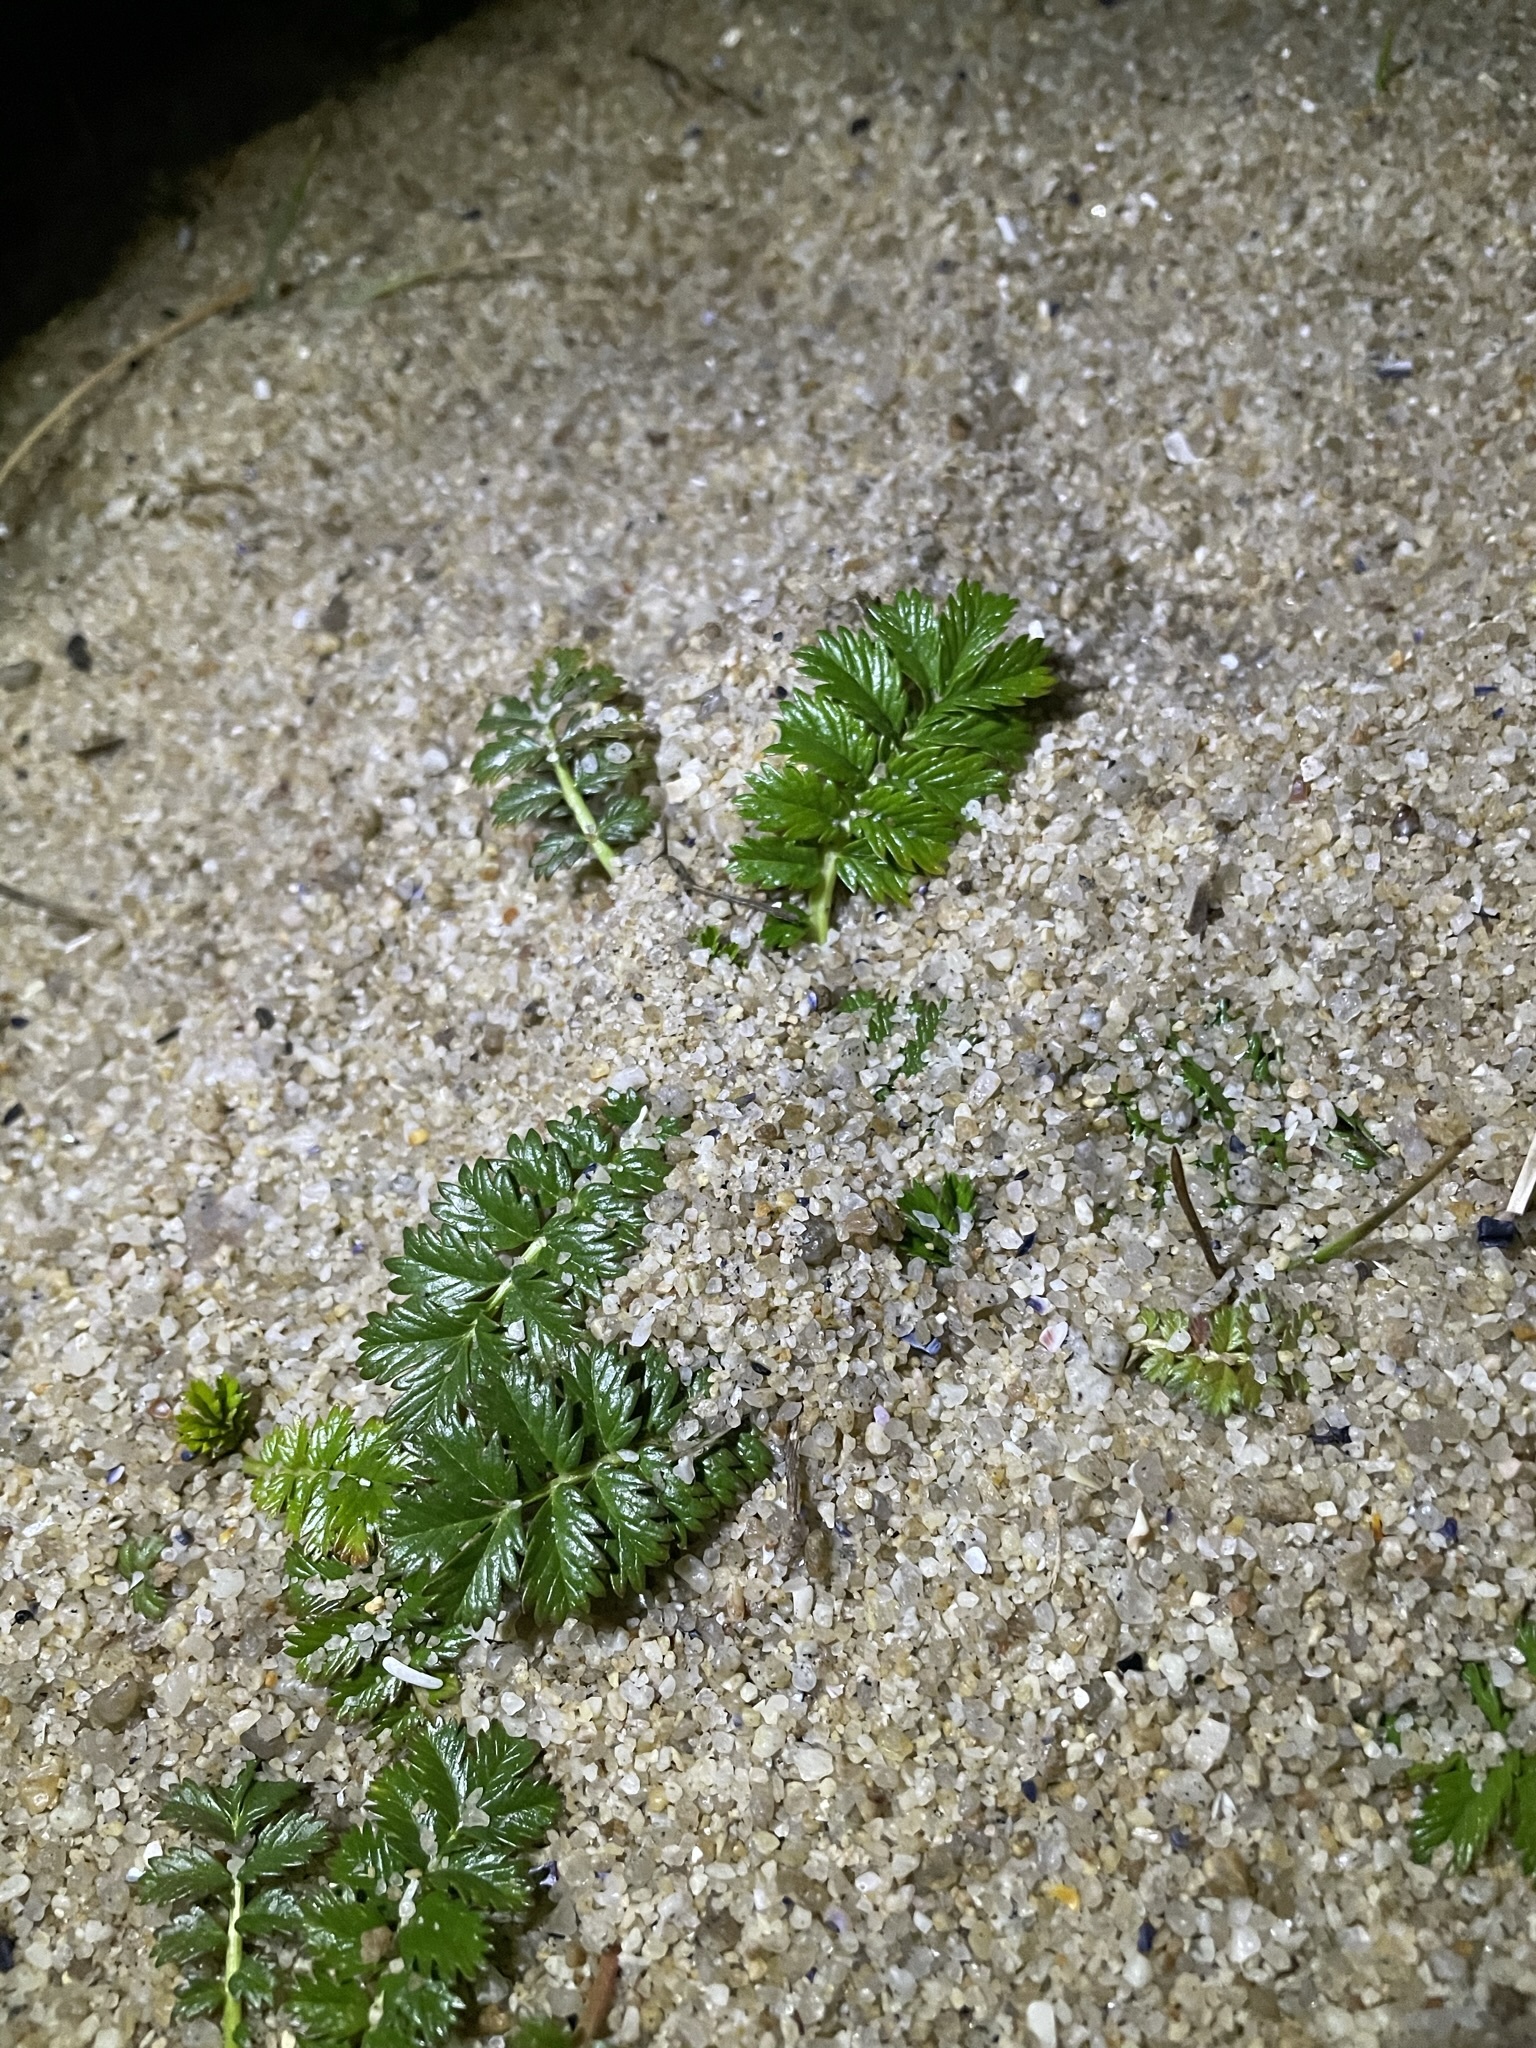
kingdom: Plantae
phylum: Tracheophyta
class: Magnoliopsida
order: Rosales
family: Rosaceae
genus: Argentina
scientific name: Argentina anserina
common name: Common silverweed
